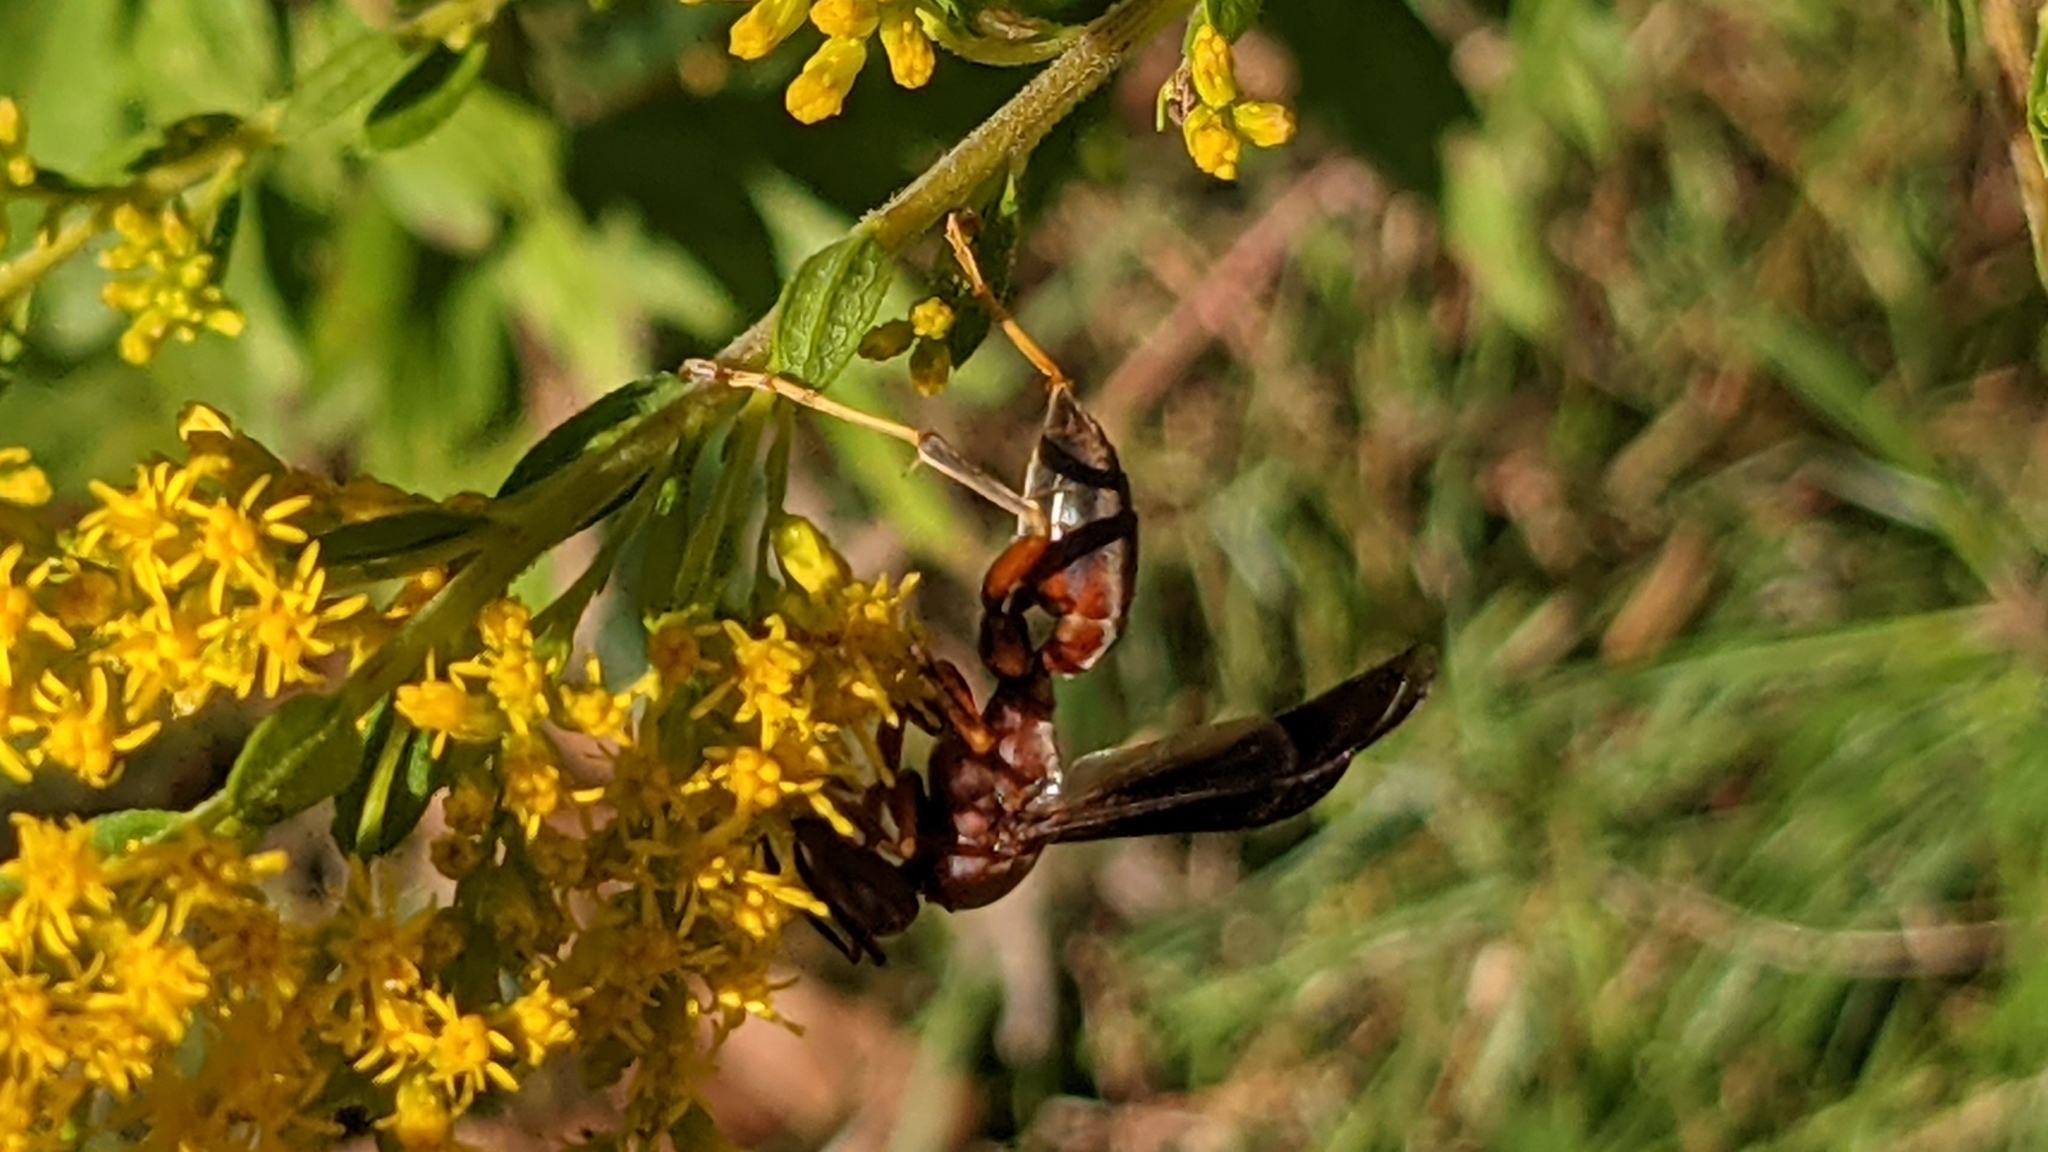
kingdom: Animalia
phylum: Arthropoda
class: Insecta
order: Hymenoptera
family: Eumenidae
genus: Polistes
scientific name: Polistes metricus
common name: Metric paper wasp
